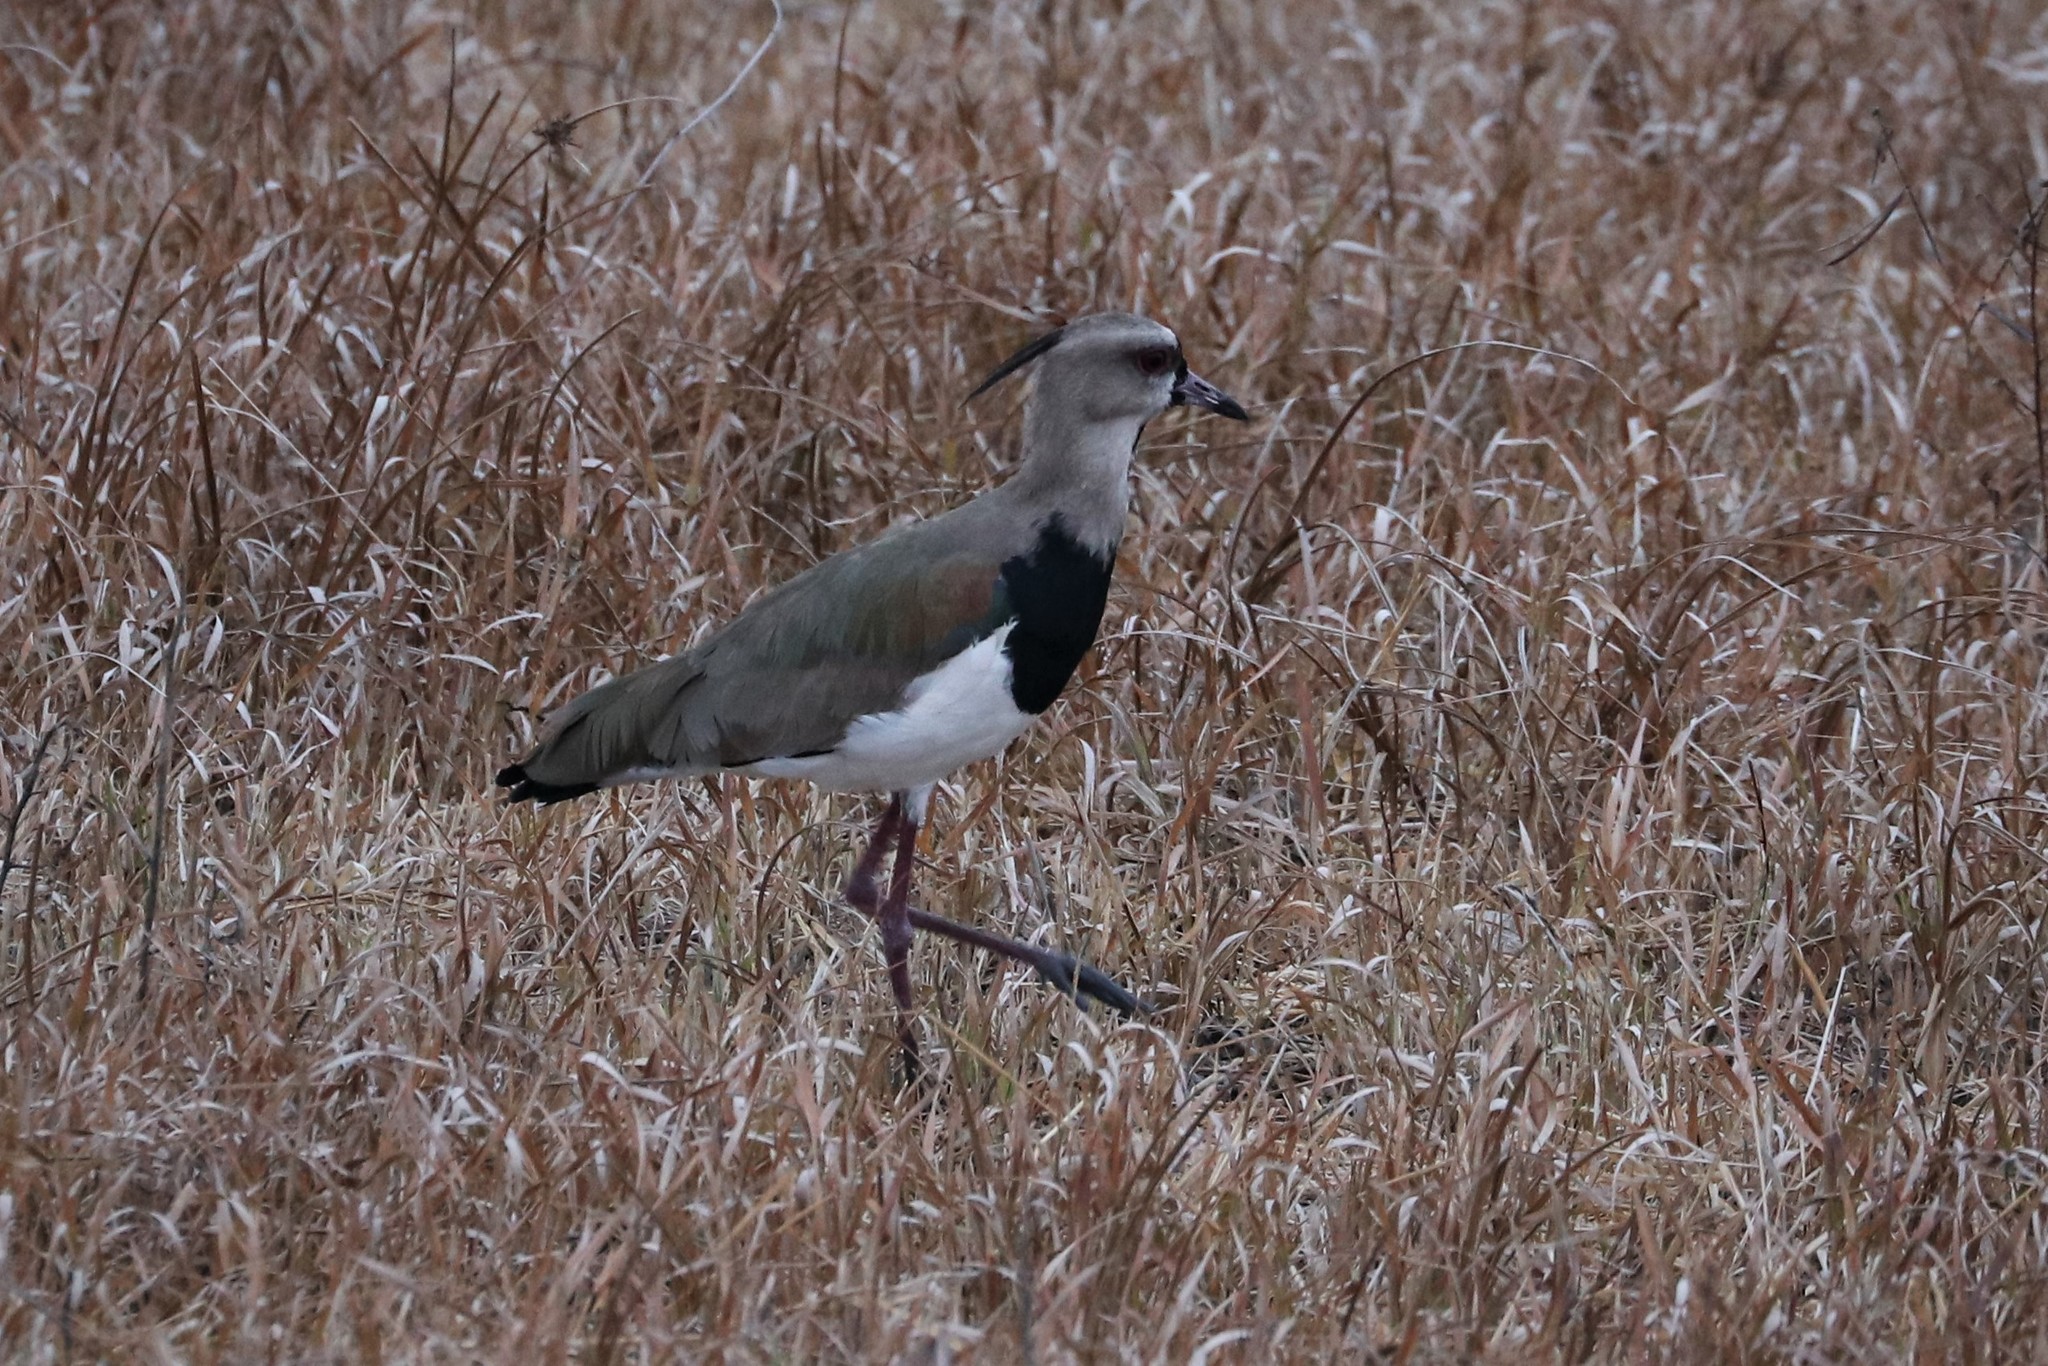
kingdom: Animalia
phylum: Chordata
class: Aves
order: Charadriiformes
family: Charadriidae
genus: Vanellus
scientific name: Vanellus chilensis
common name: Southern lapwing
